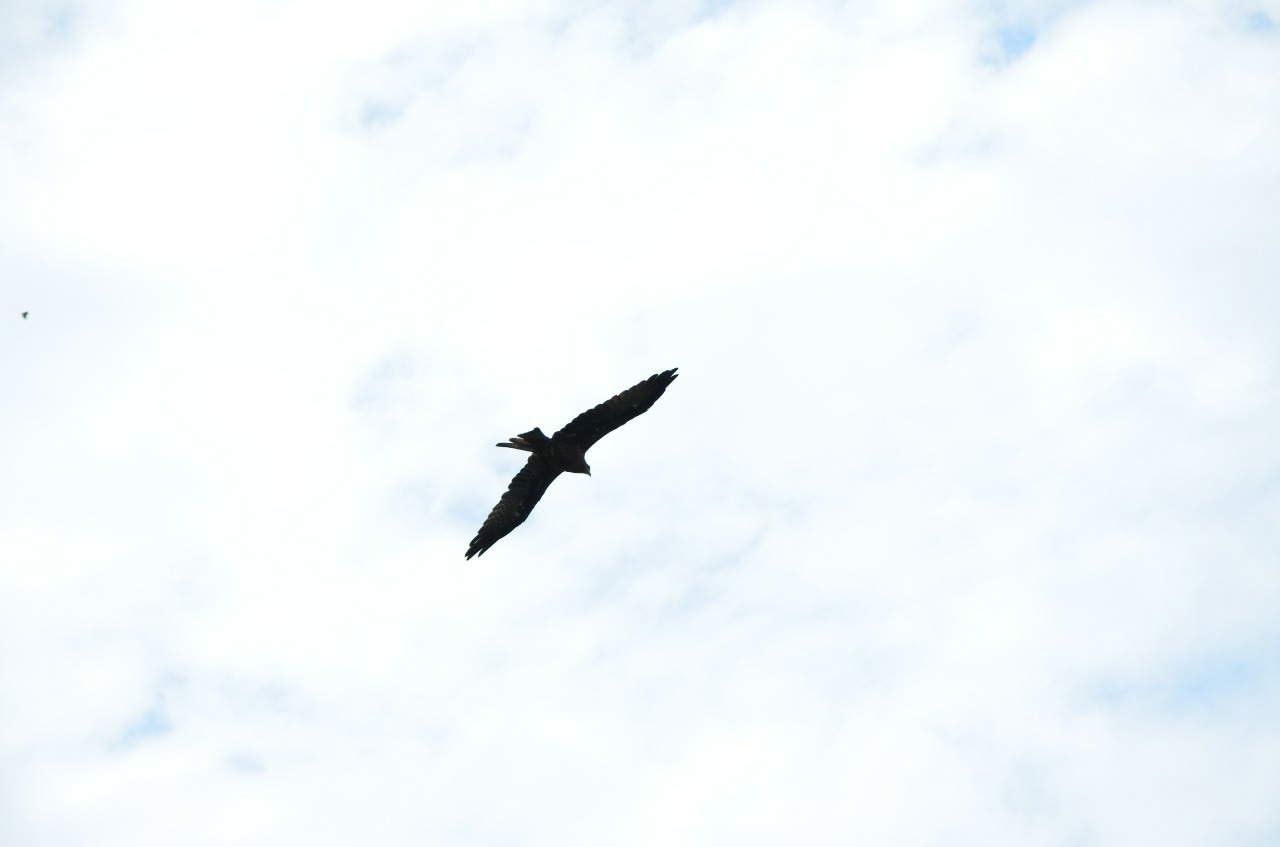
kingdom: Animalia
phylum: Chordata
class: Aves
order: Accipitriformes
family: Accipitridae
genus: Milvus
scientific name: Milvus migrans
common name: Black kite
